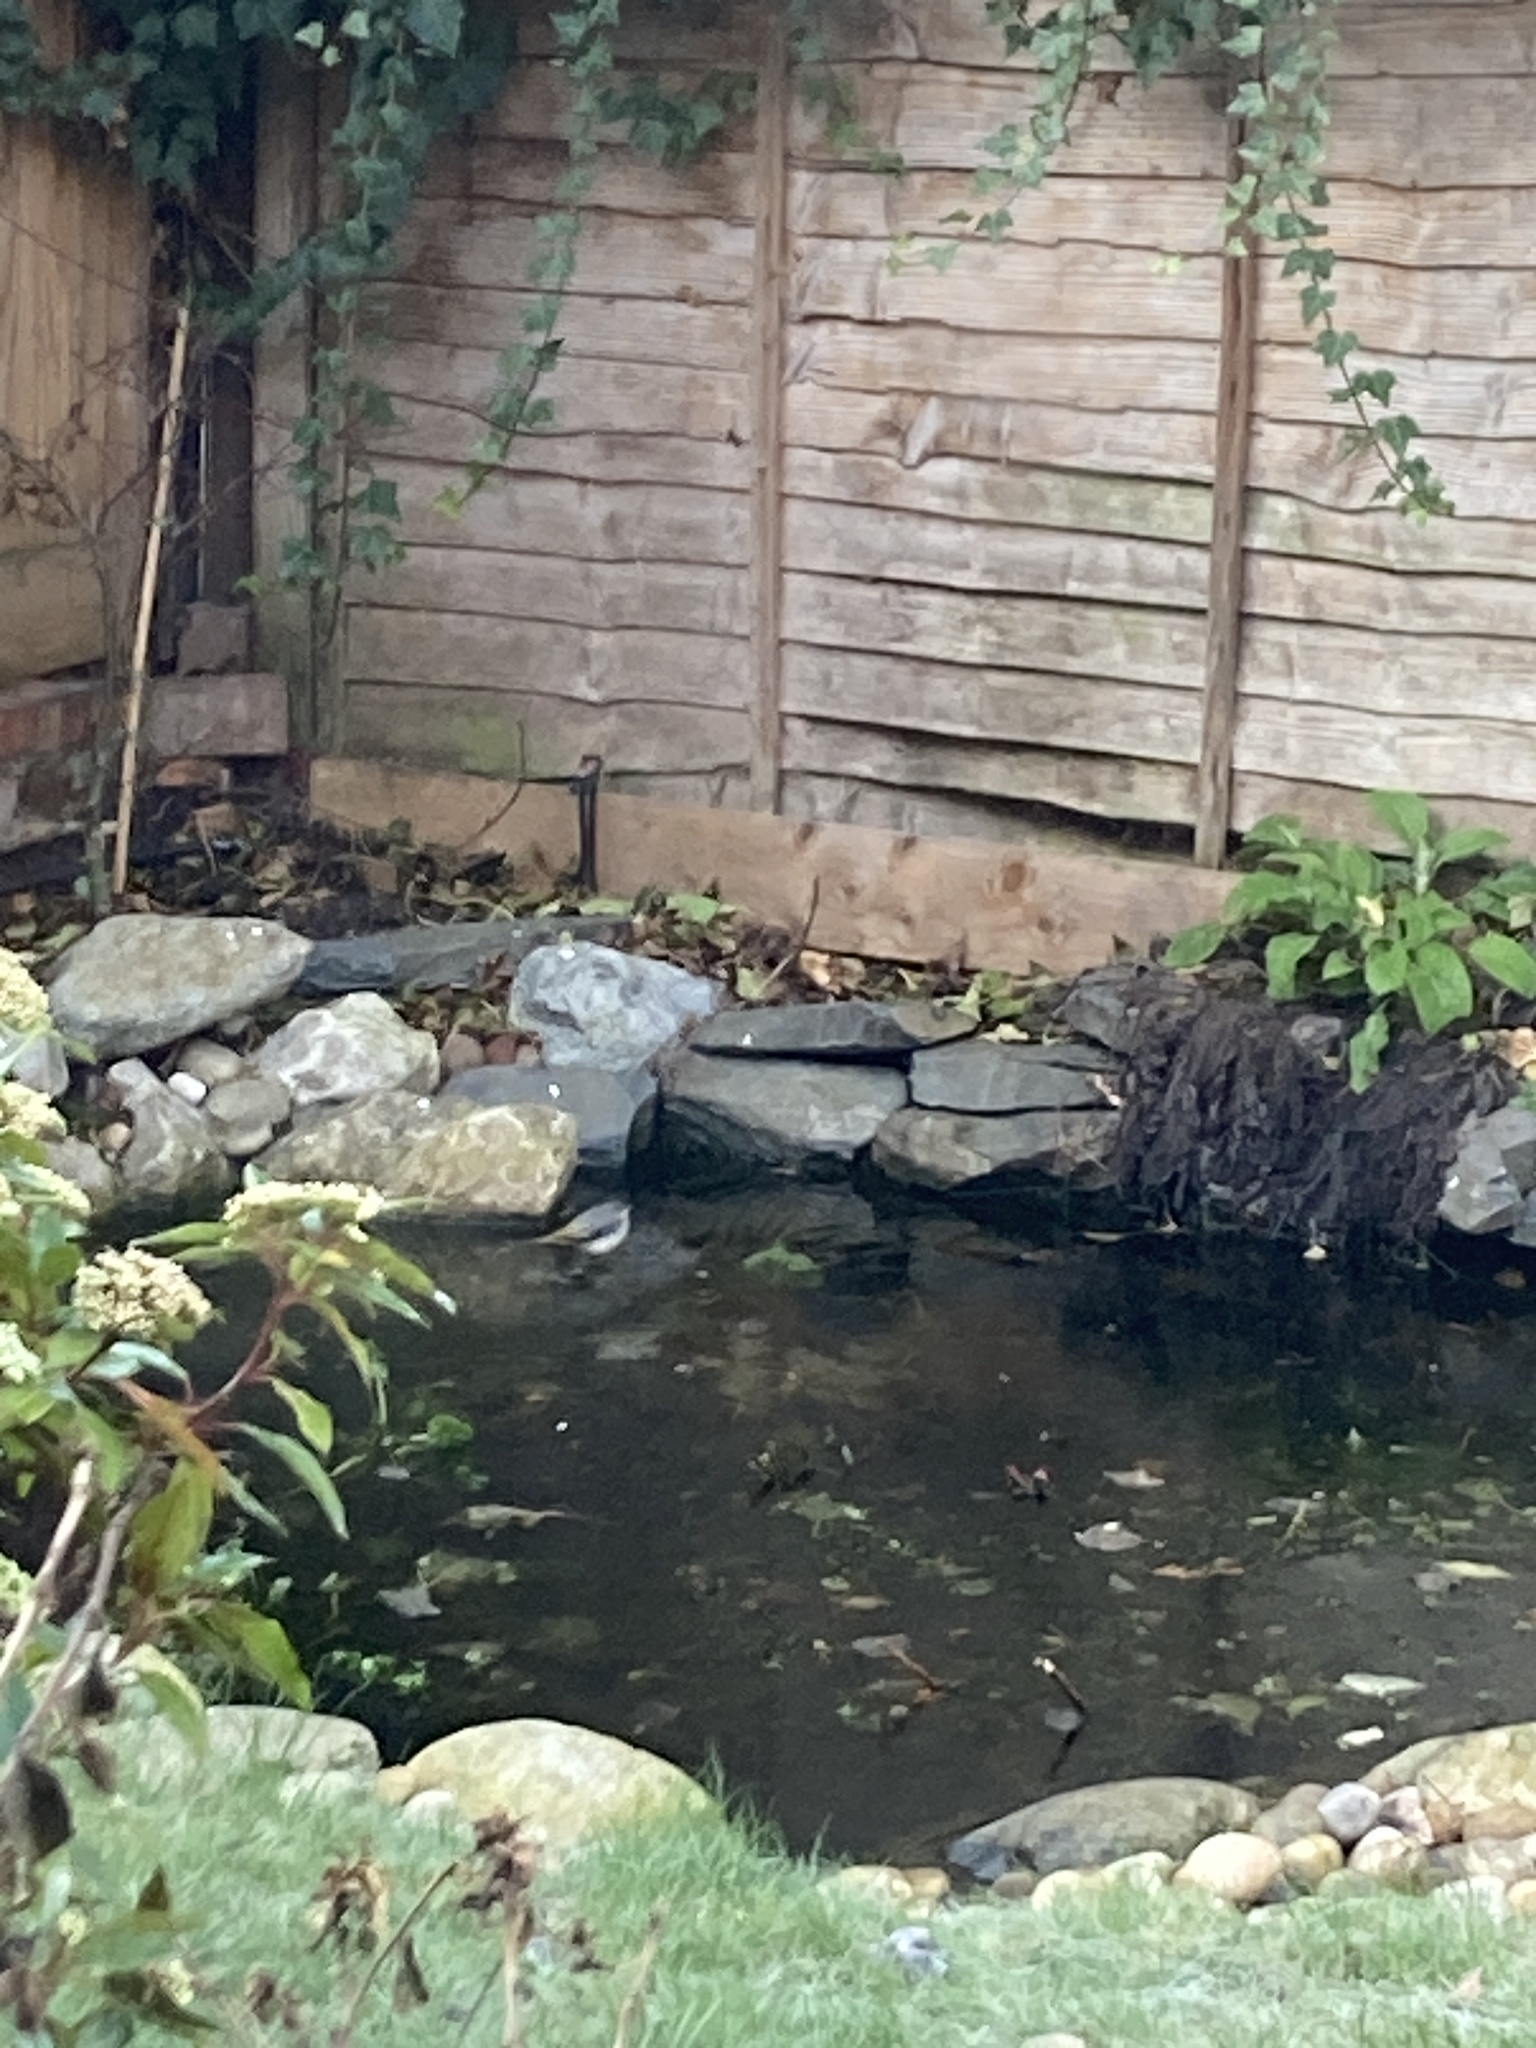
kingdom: Animalia
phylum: Chordata
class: Aves
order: Passeriformes
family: Motacillidae
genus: Motacilla
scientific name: Motacilla cinerea
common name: Grey wagtail
